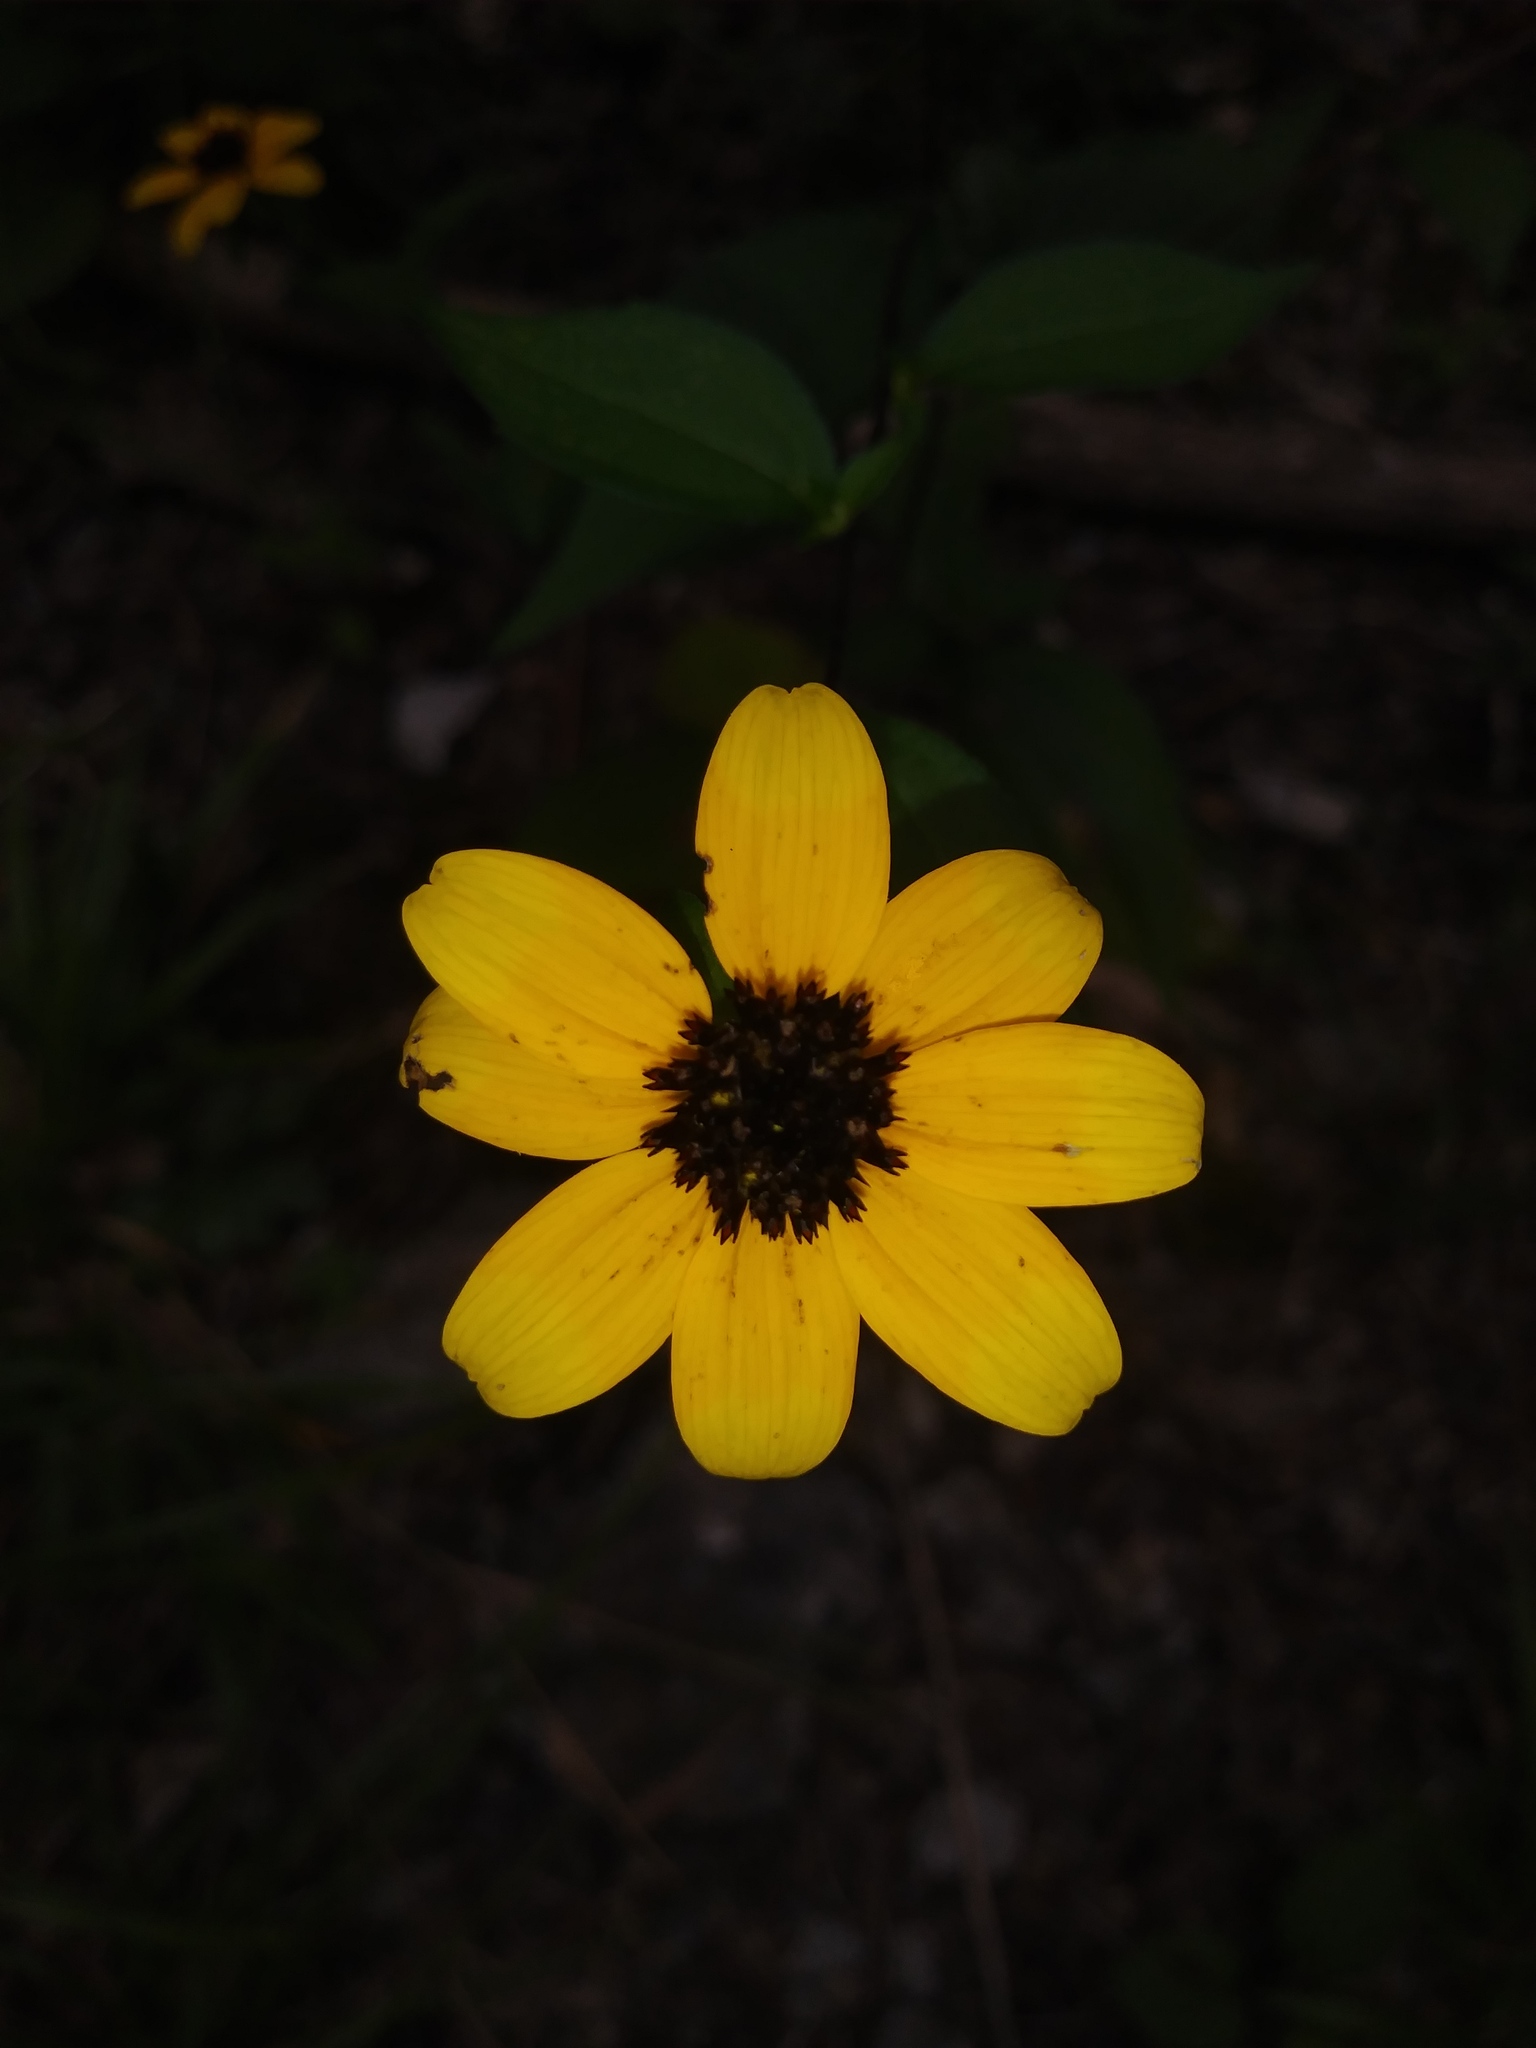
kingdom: Plantae
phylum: Tracheophyta
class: Magnoliopsida
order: Asterales
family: Asteraceae
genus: Rudbeckia
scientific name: Rudbeckia triloba
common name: Thin-leaved coneflower
